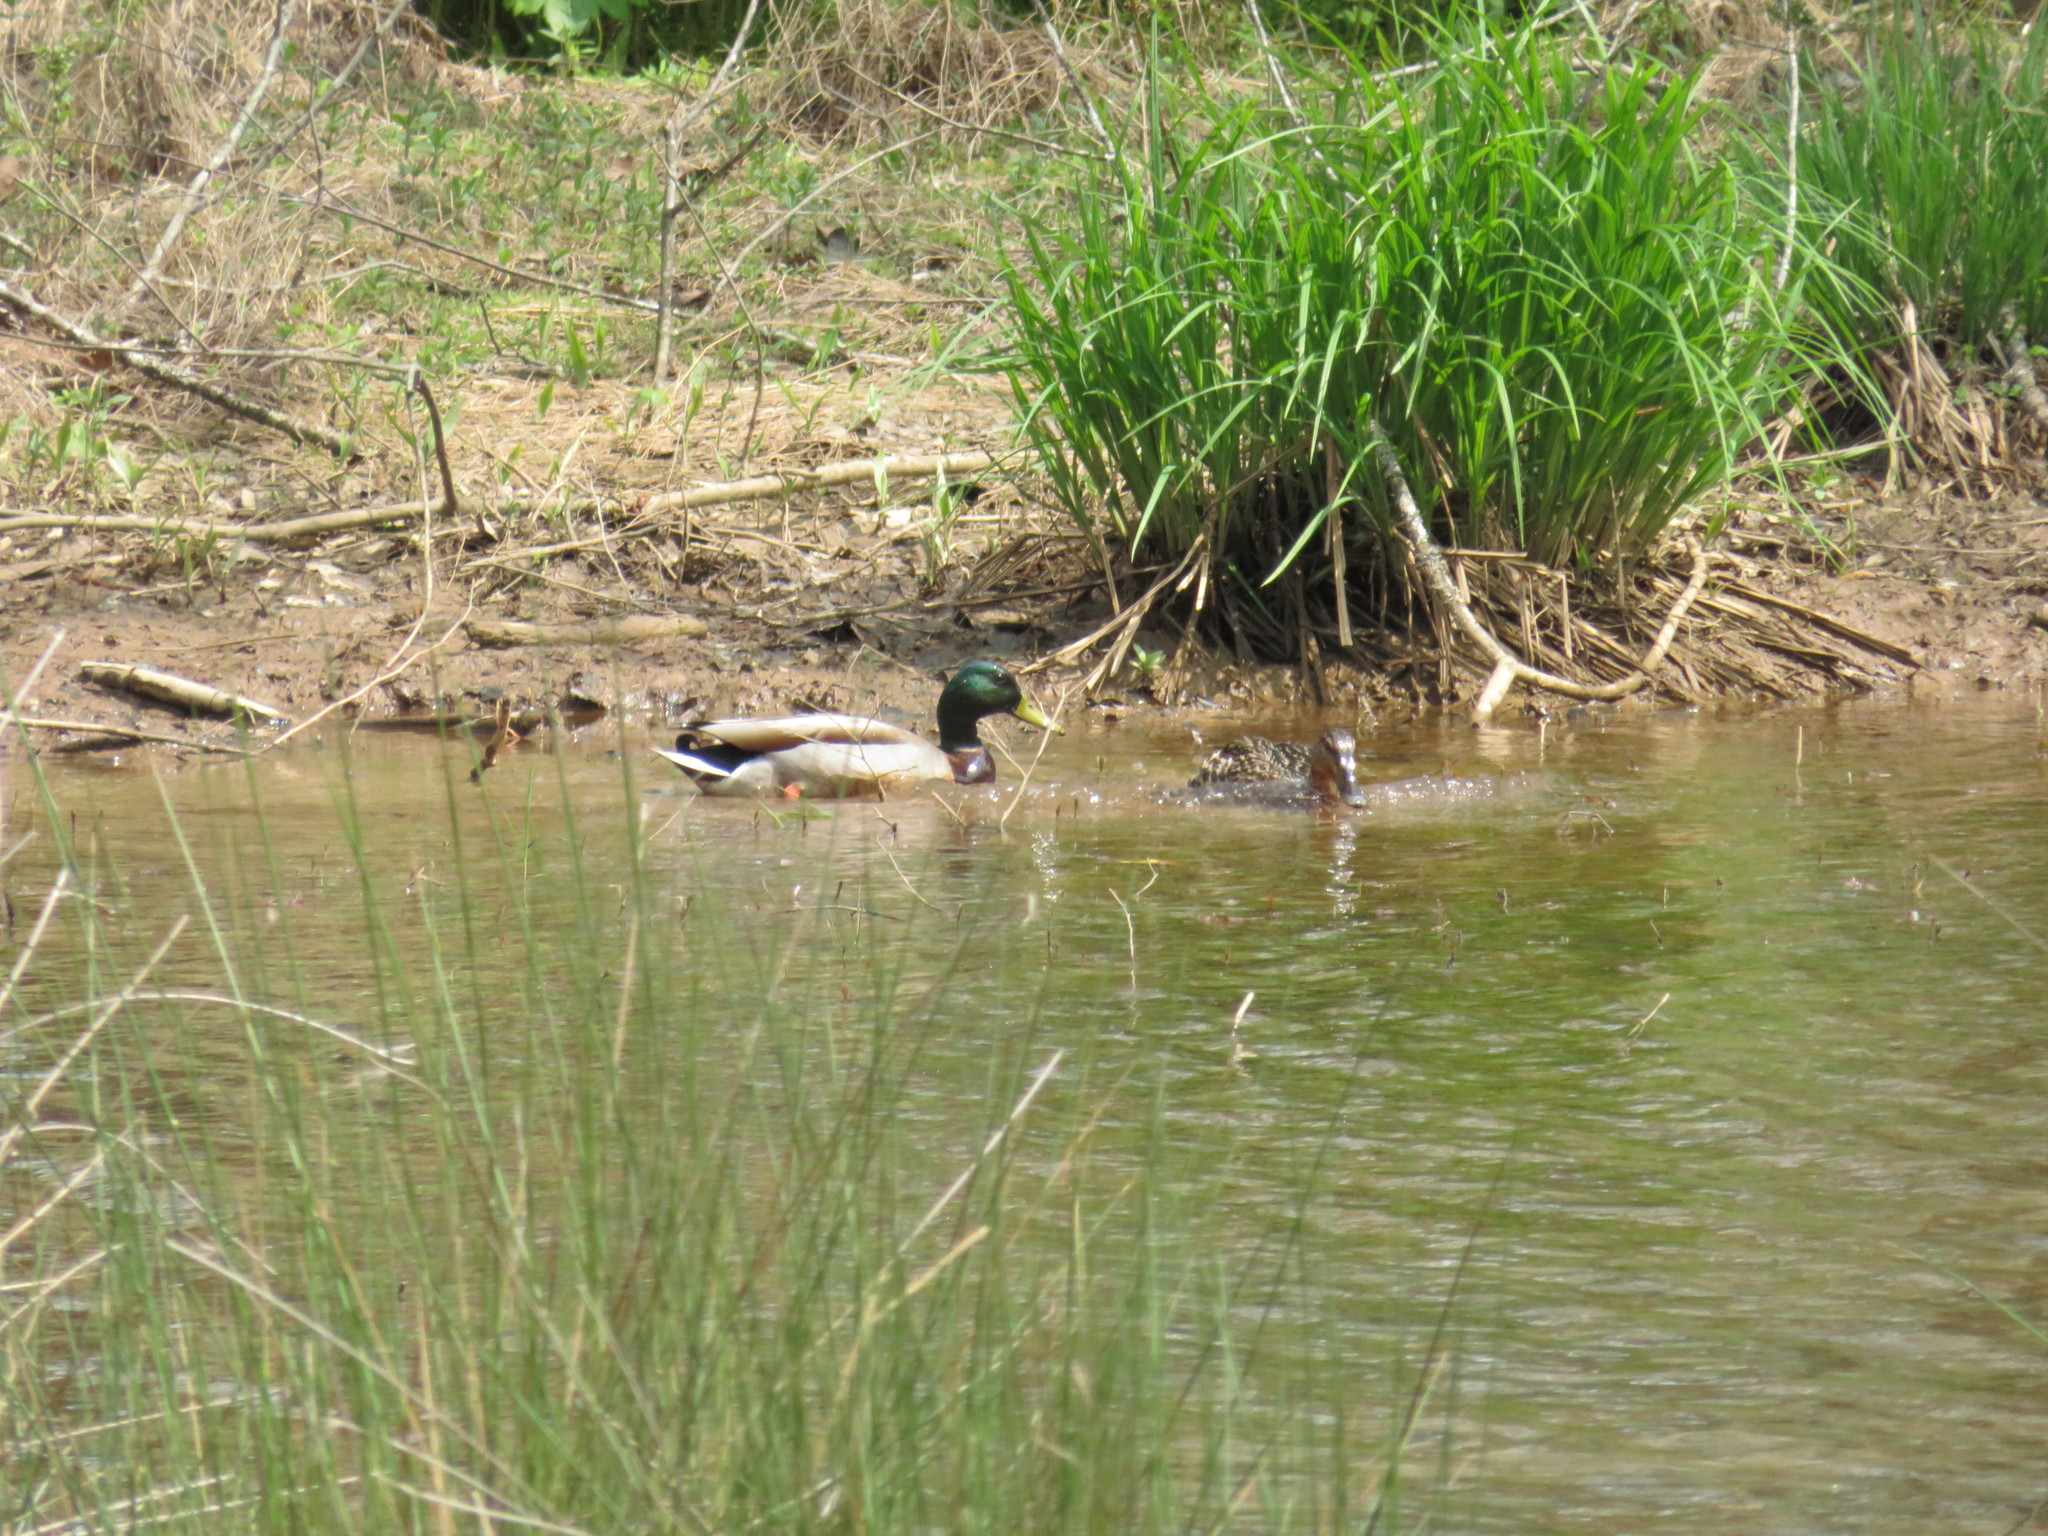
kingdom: Animalia
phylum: Chordata
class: Aves
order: Anseriformes
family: Anatidae
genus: Anas
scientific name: Anas platyrhynchos
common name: Mallard
